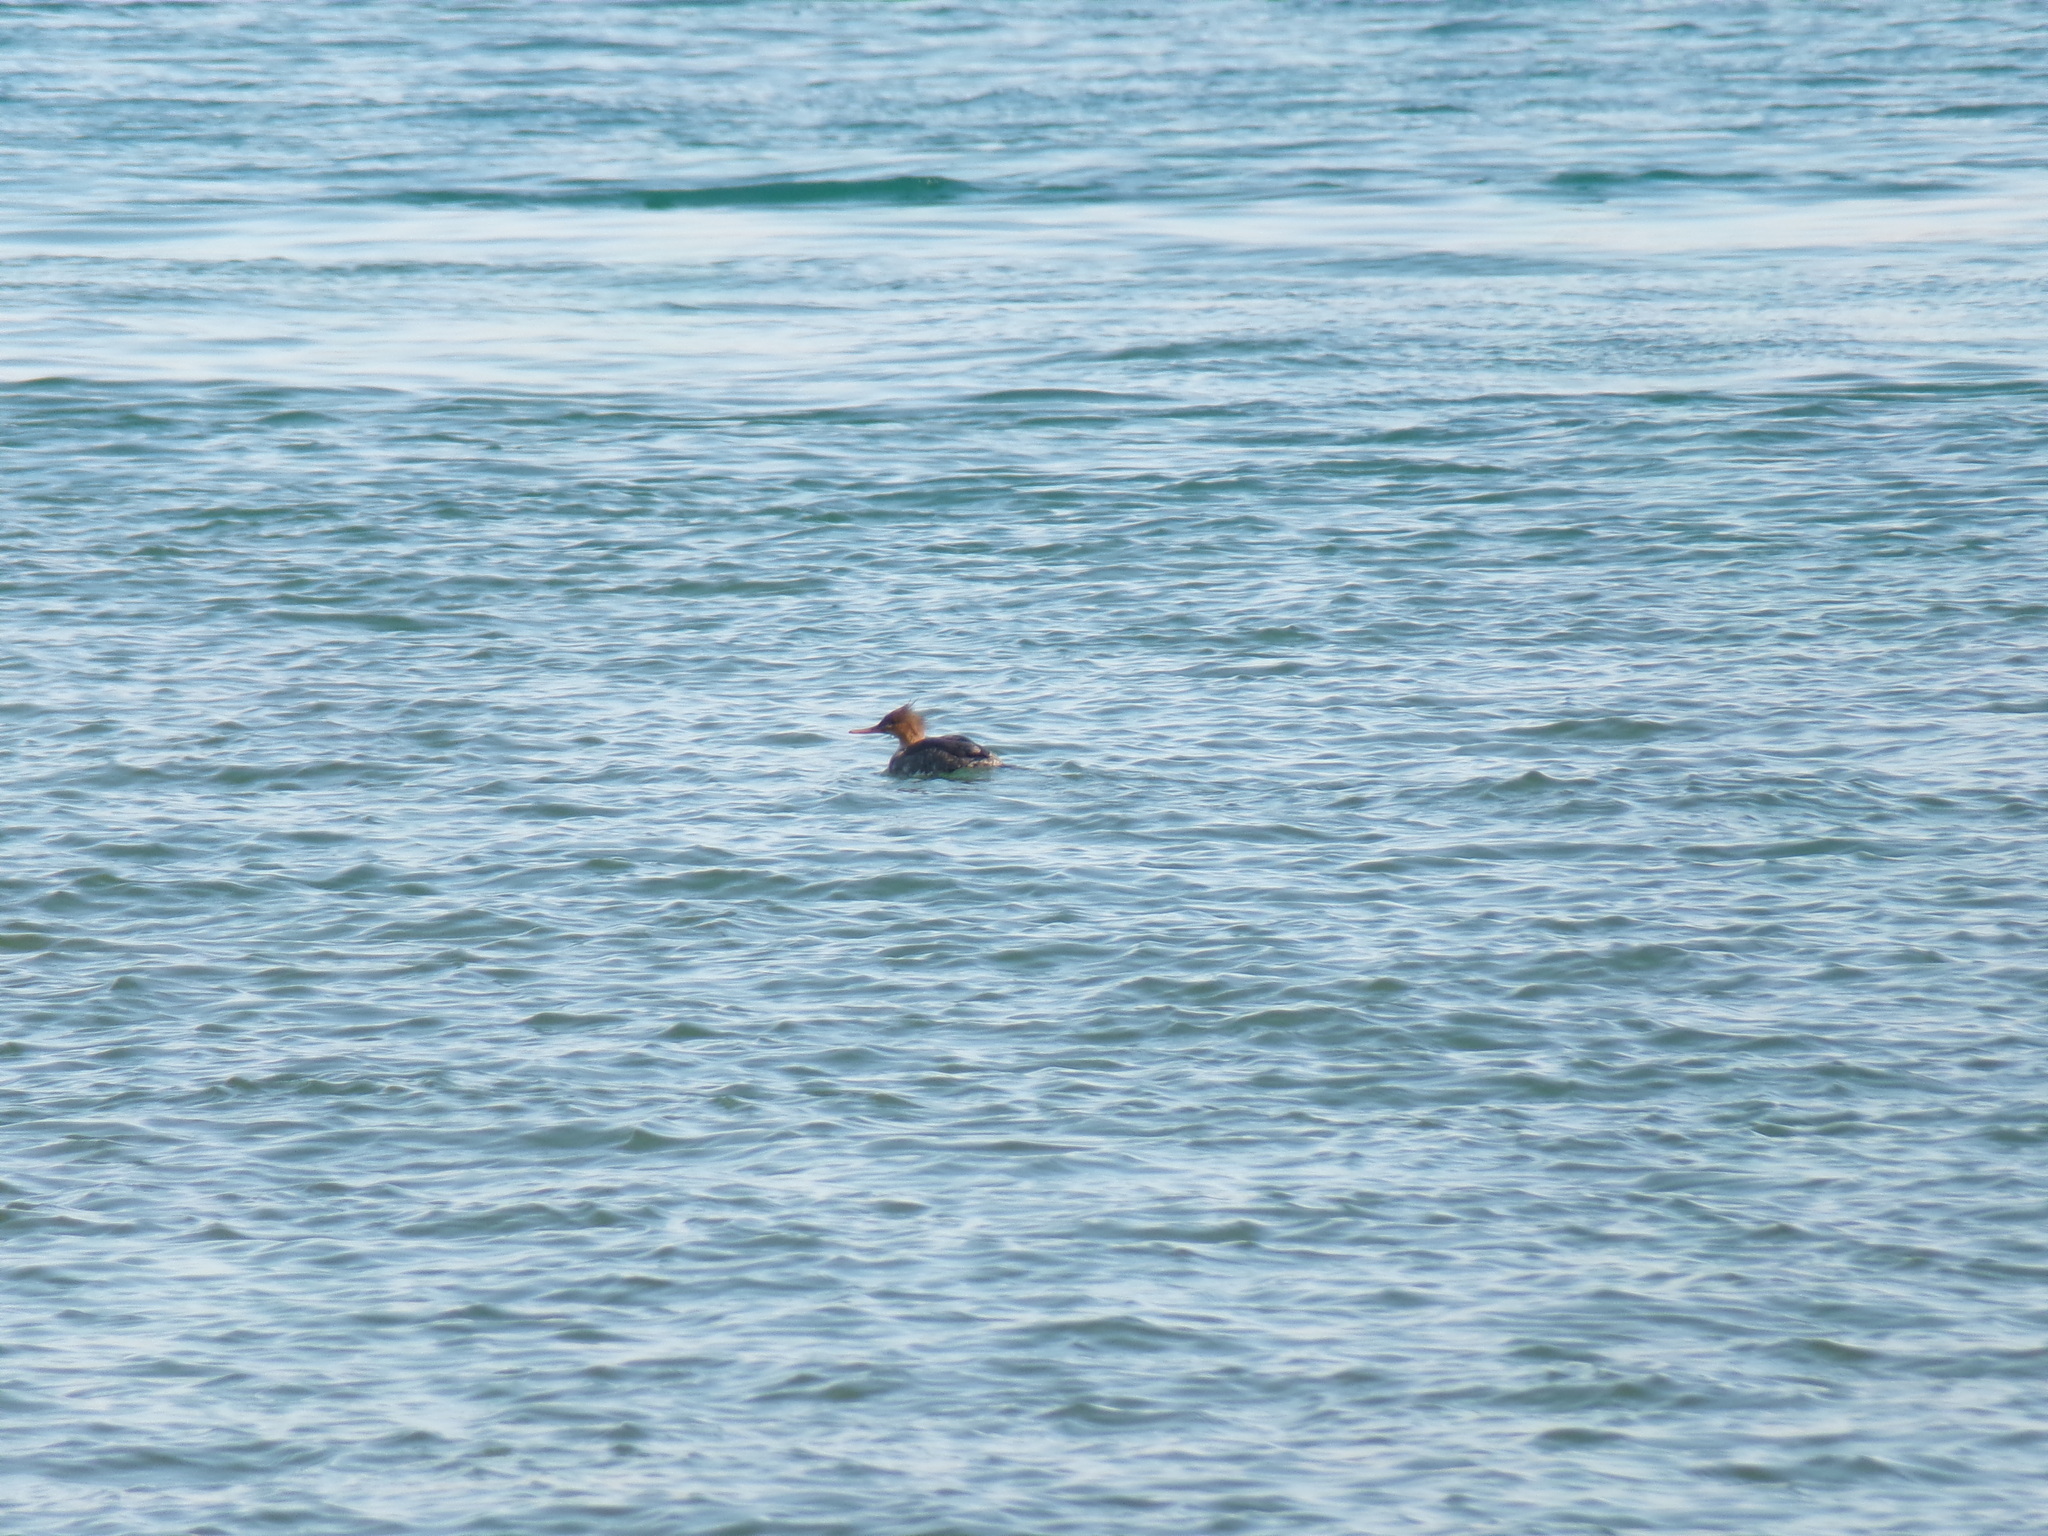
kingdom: Animalia
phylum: Chordata
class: Aves
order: Anseriformes
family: Anatidae
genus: Mergus
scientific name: Mergus serrator
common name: Red-breasted merganser
